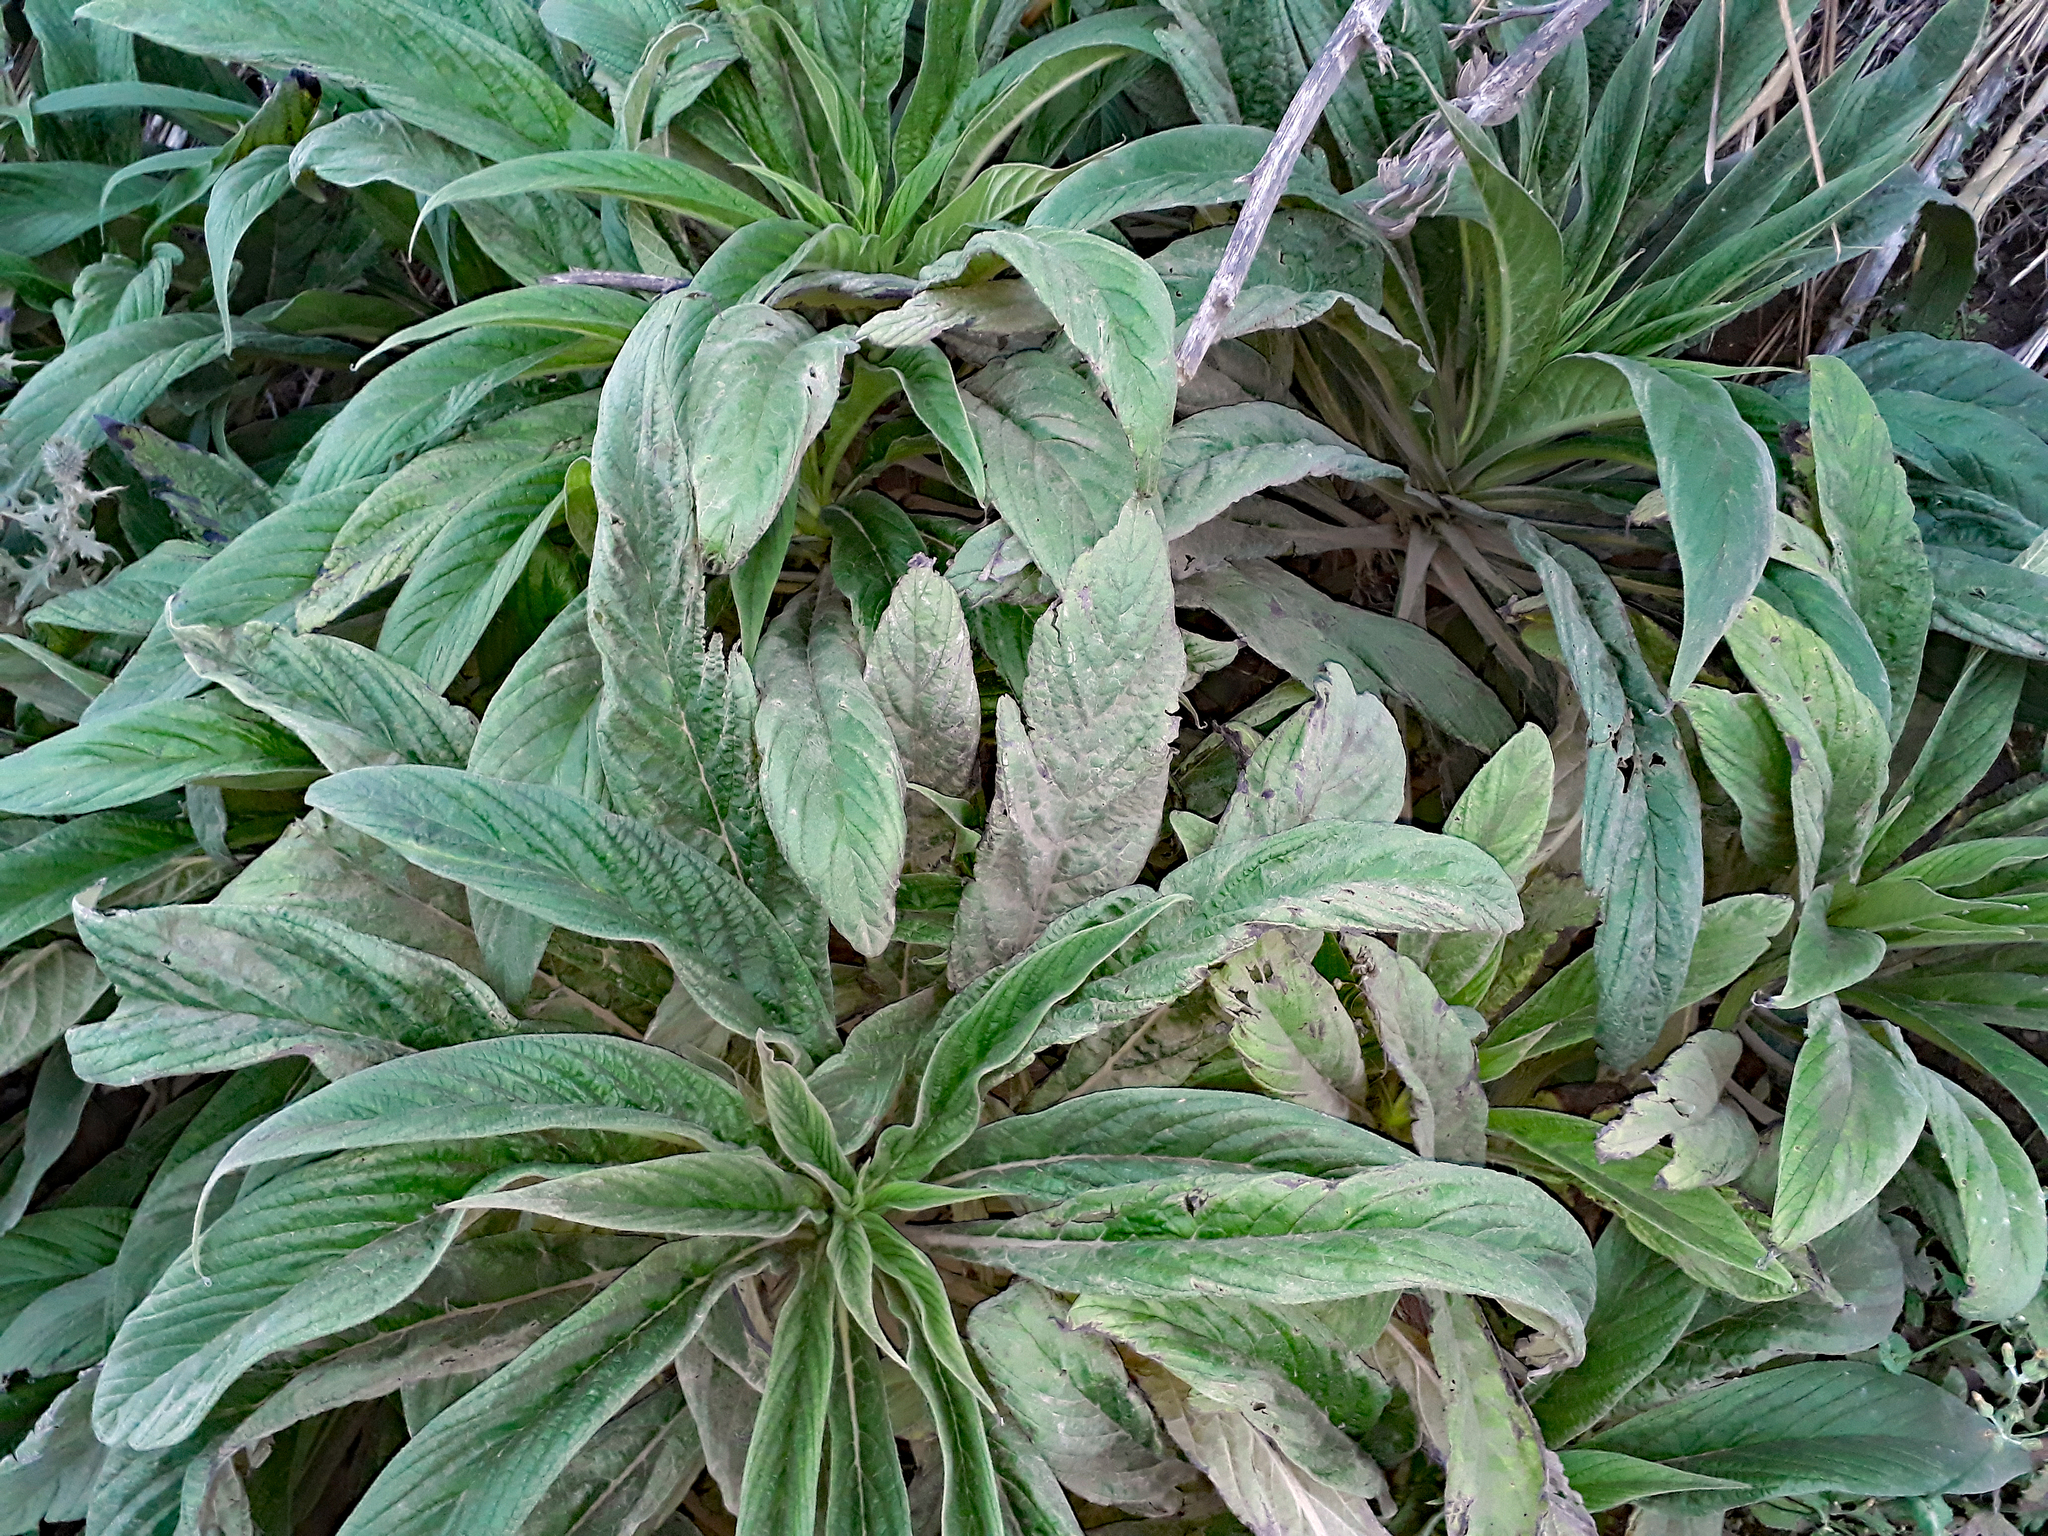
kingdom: Plantae
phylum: Tracheophyta
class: Magnoliopsida
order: Boraginales
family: Boraginaceae
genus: Echium
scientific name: Echium pininana
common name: Giant viper's-bugloss
